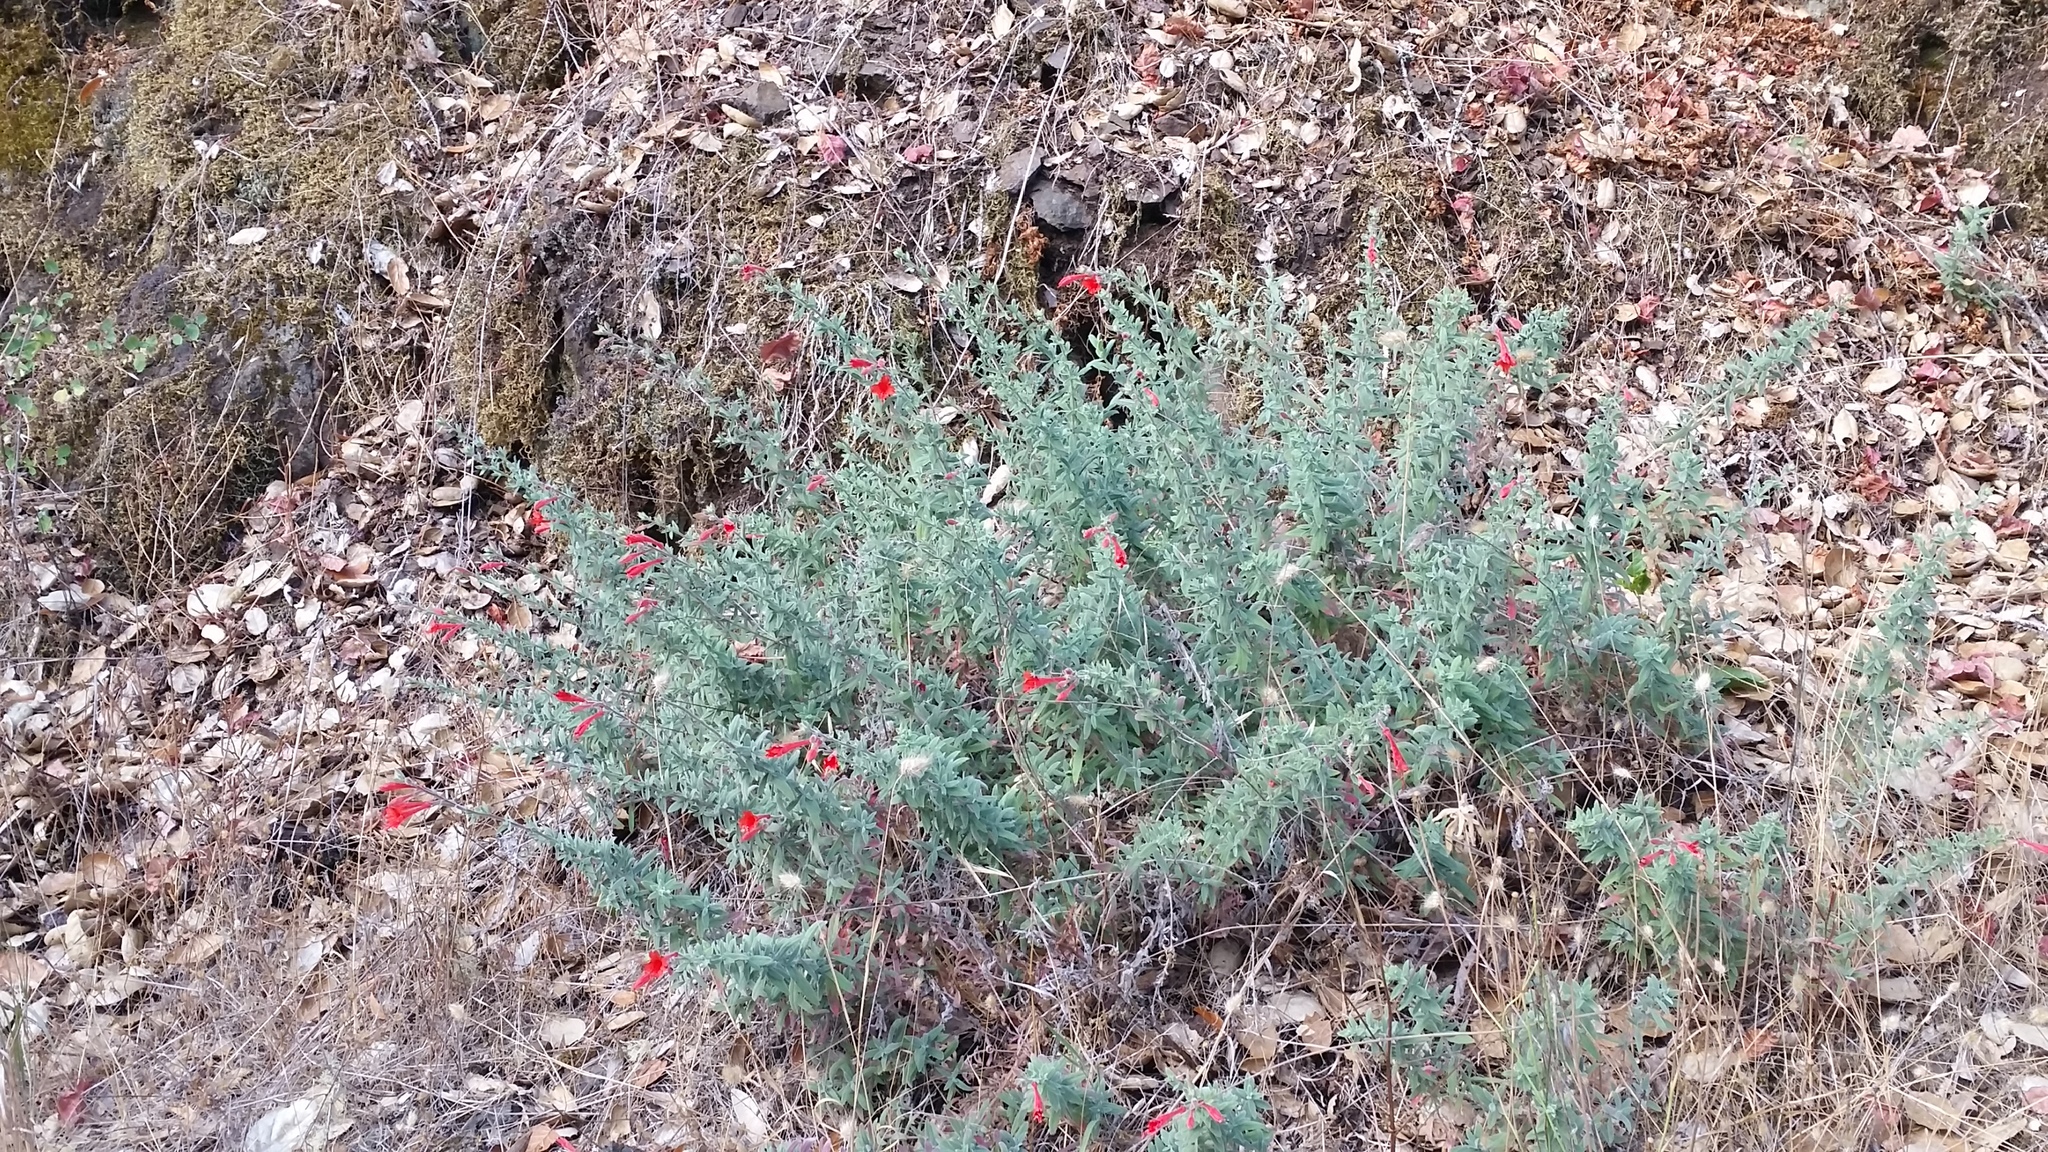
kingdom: Plantae
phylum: Tracheophyta
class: Magnoliopsida
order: Myrtales
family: Onagraceae
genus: Epilobium
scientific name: Epilobium canum
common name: California-fuchsia
